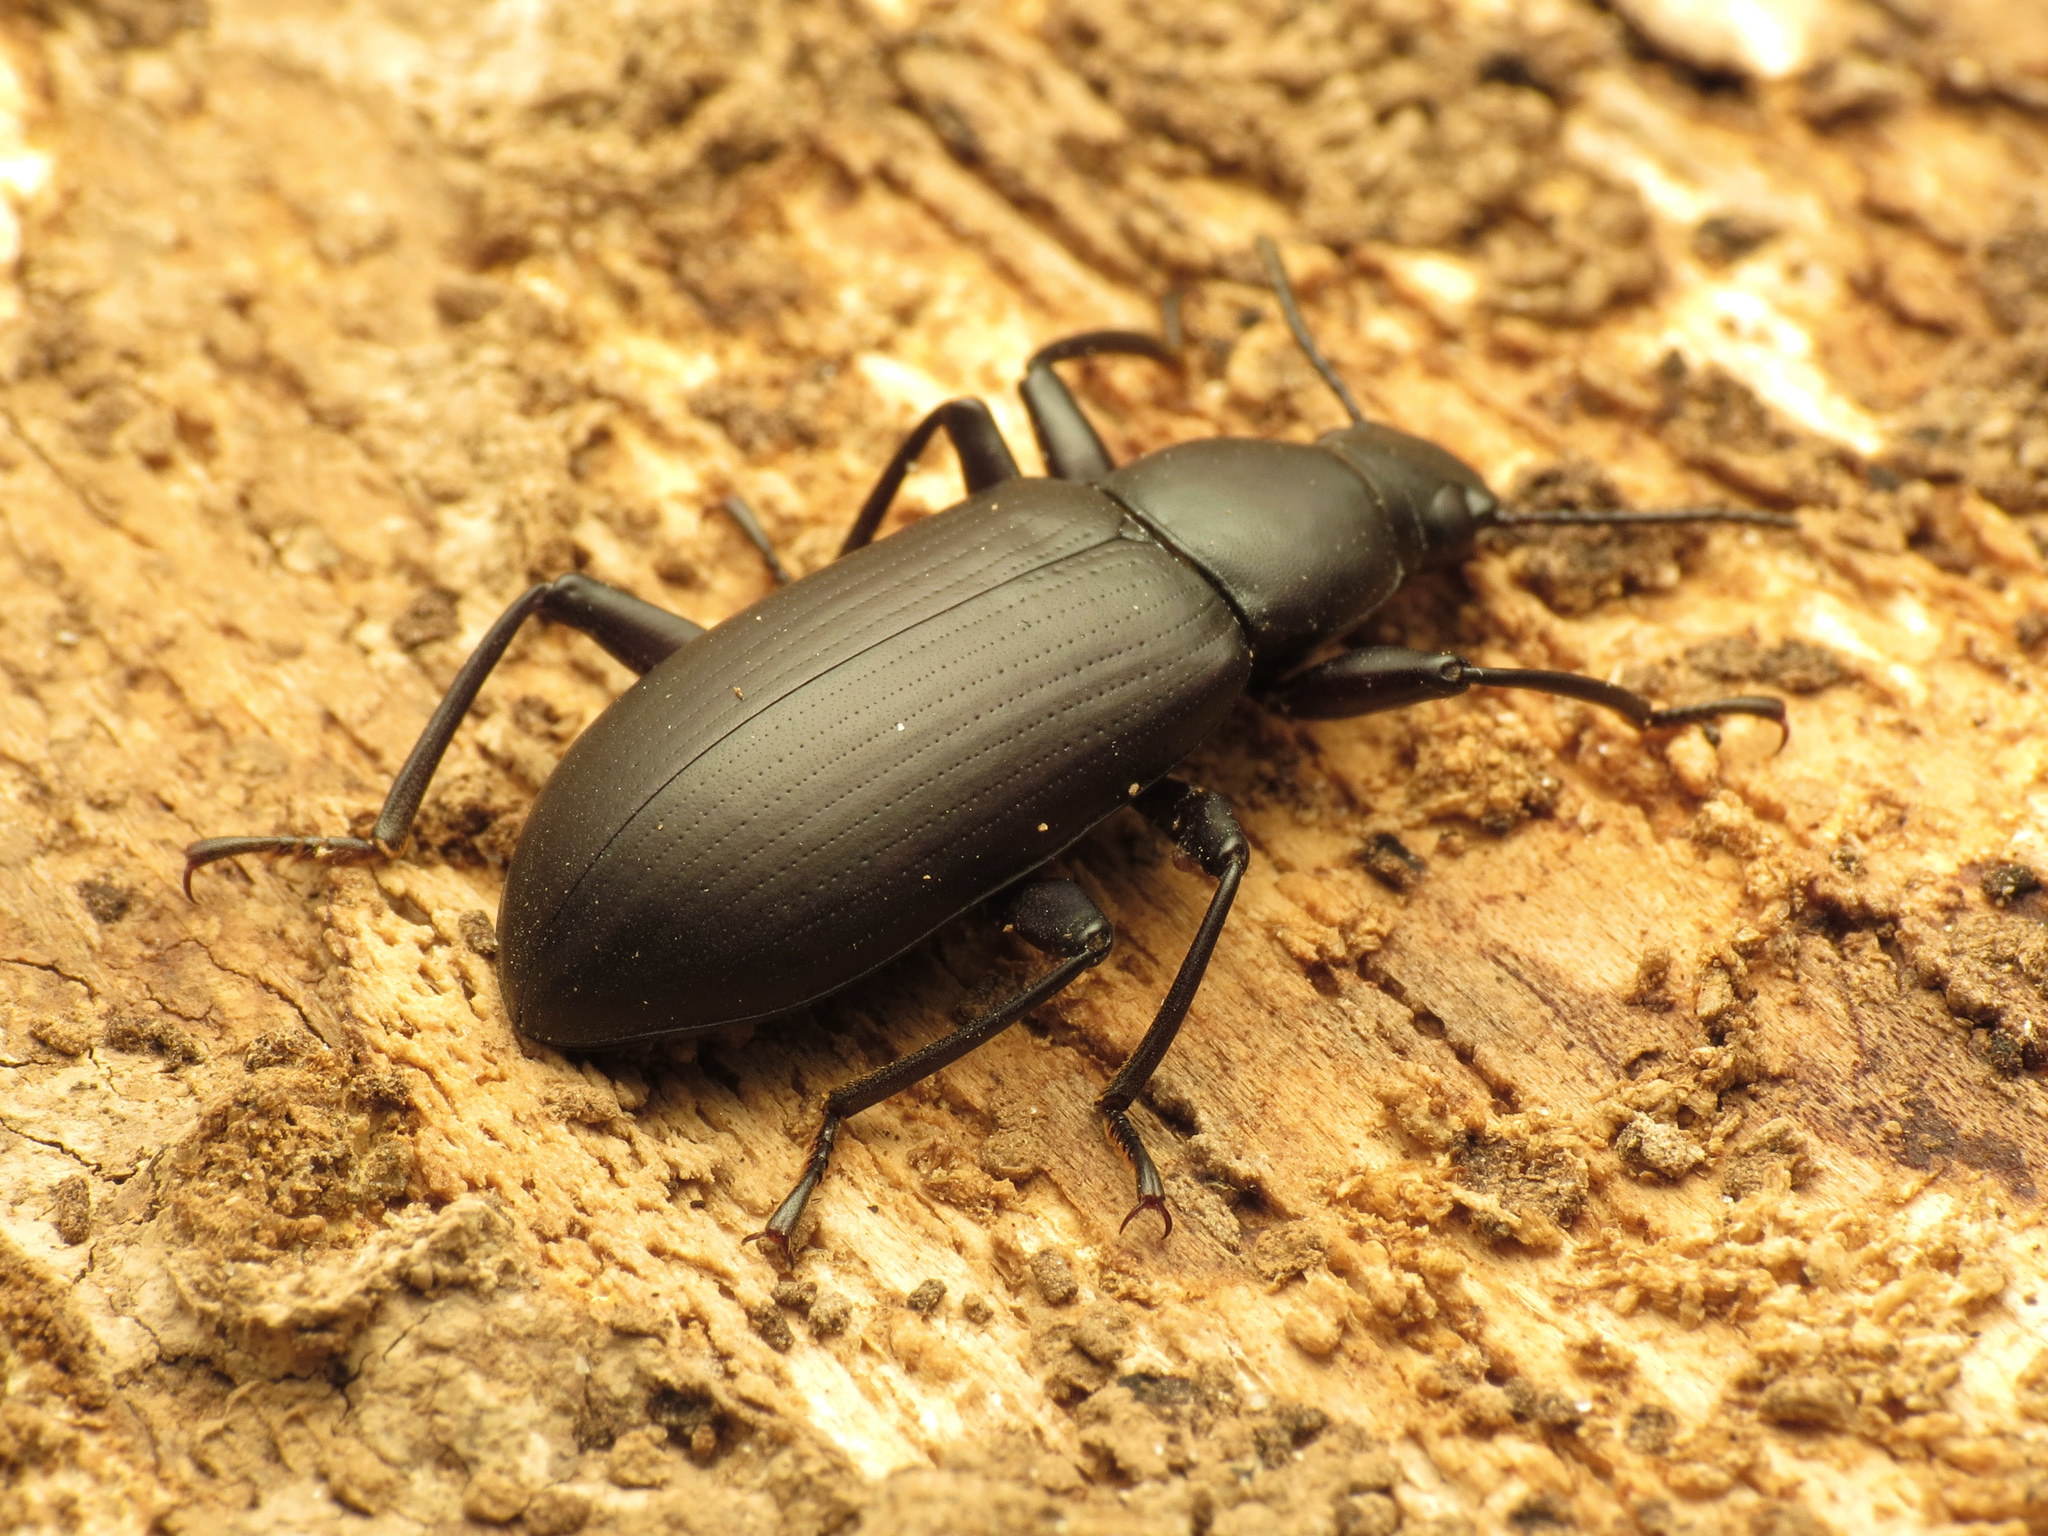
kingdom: Animalia
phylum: Arthropoda
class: Insecta
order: Coleoptera
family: Tenebrionidae
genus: Alobates
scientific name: Alobates
